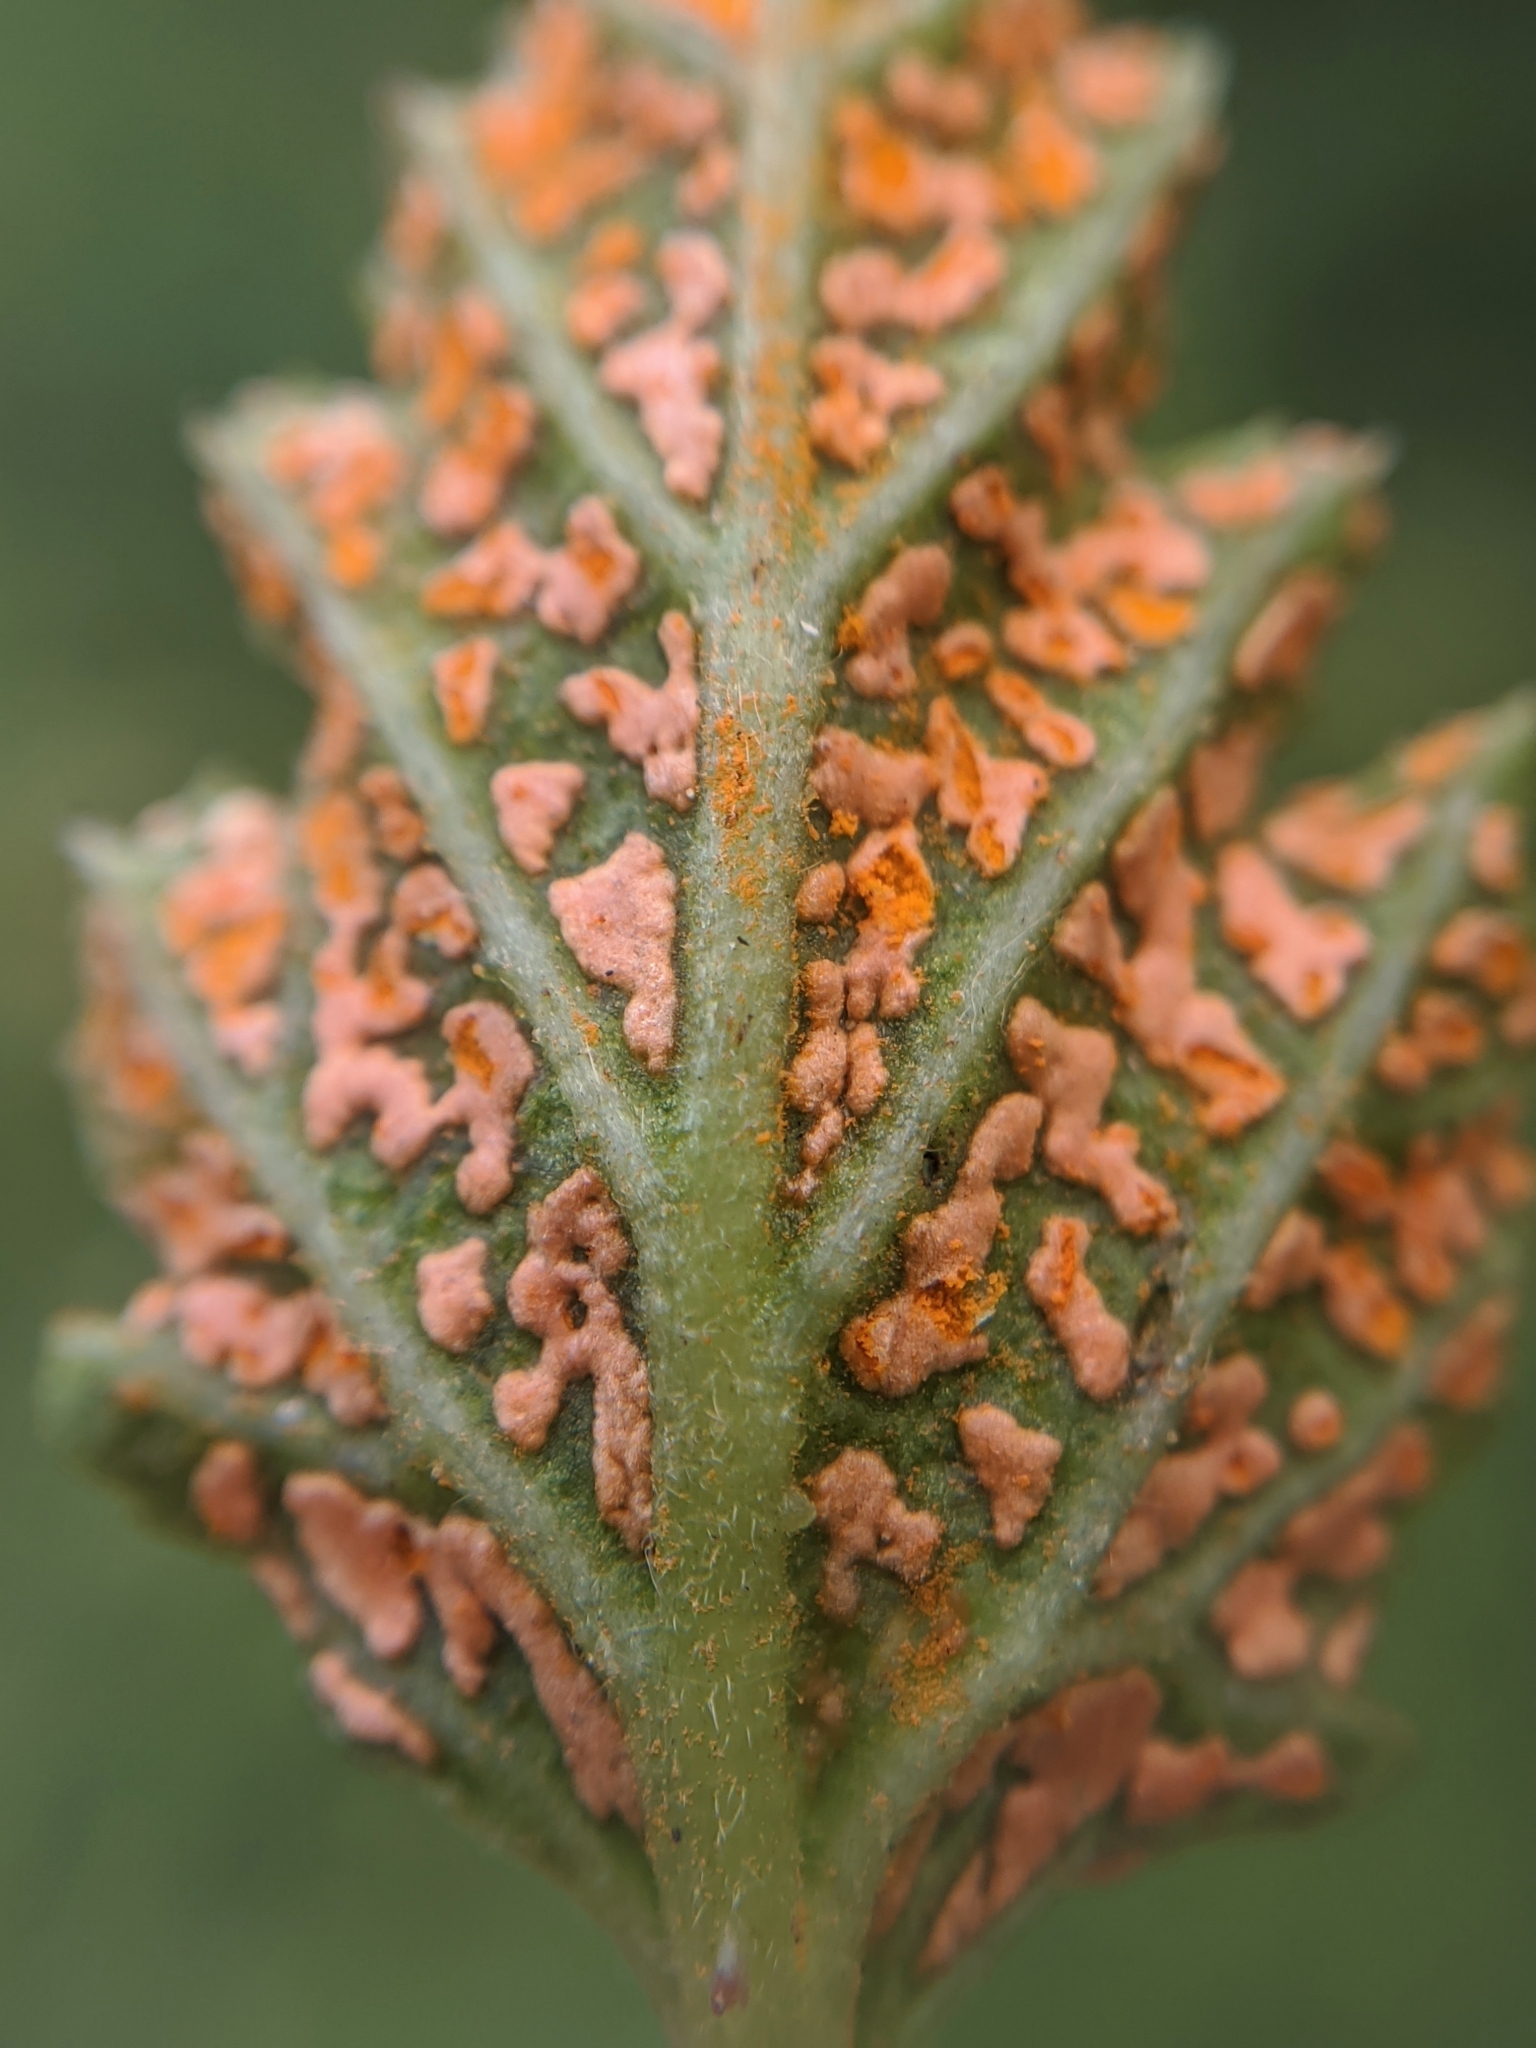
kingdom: Fungi
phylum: Basidiomycota
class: Pucciniomycetes
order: Pucciniales
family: Phragmidiaceae
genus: Arthuriomyces
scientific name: Arthuriomyces peckianus
